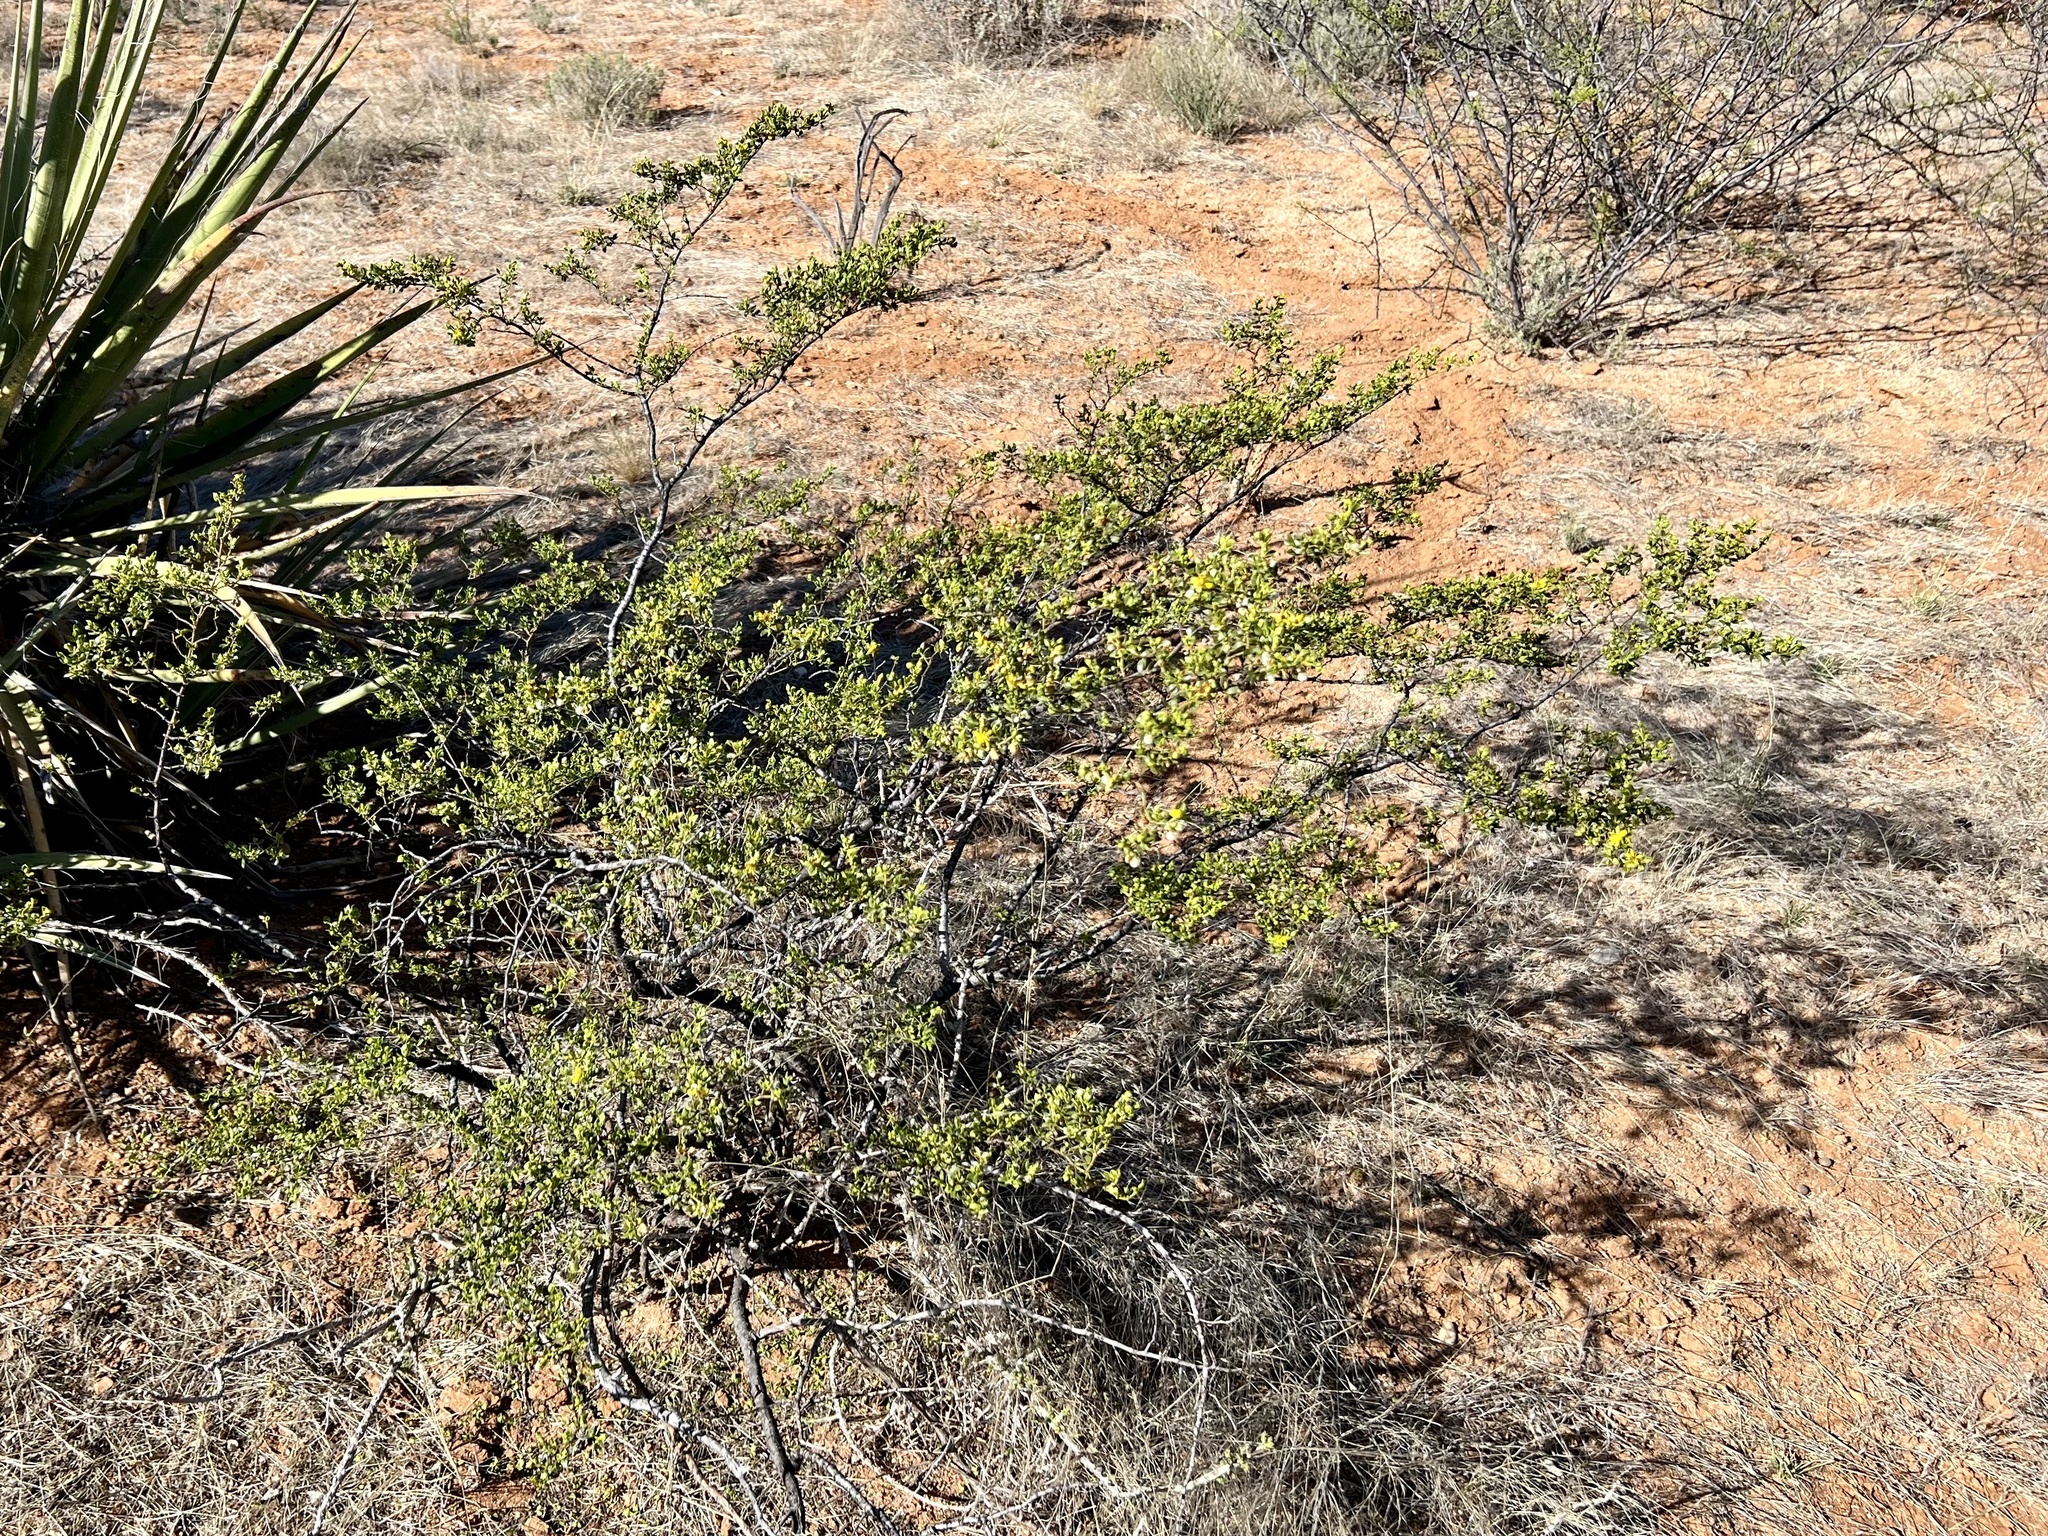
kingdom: Plantae
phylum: Tracheophyta
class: Magnoliopsida
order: Zygophyllales
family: Zygophyllaceae
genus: Larrea
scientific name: Larrea tridentata
